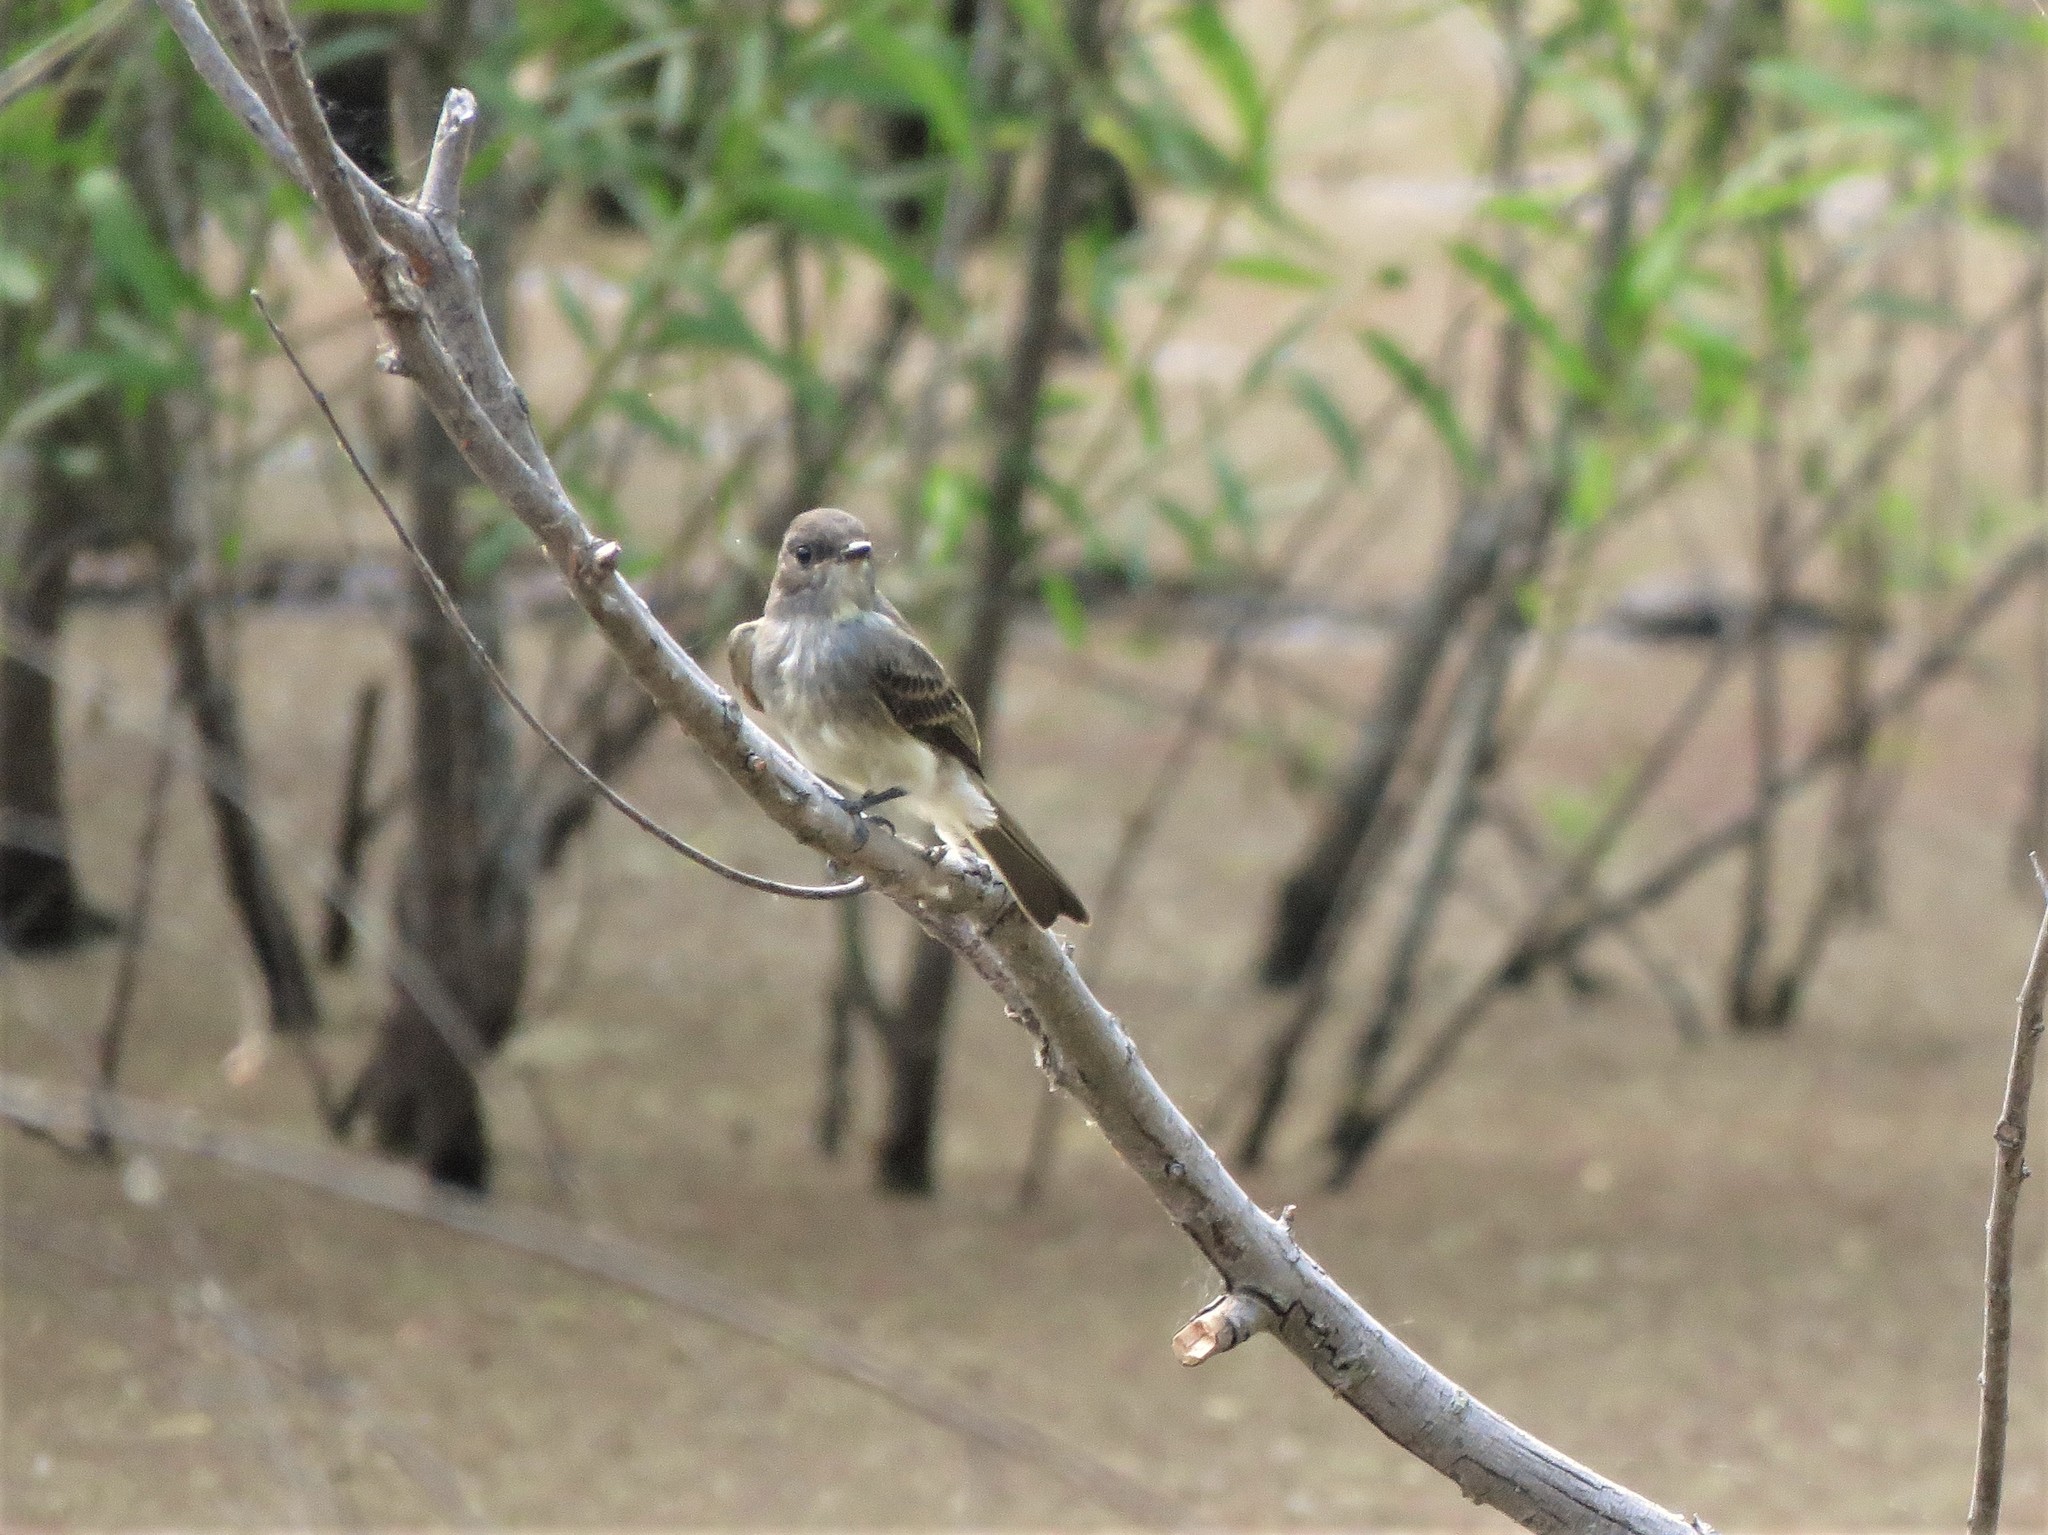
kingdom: Animalia
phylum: Chordata
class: Aves
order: Passeriformes
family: Tyrannidae
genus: Sayornis
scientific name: Sayornis phoebe
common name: Eastern phoebe
